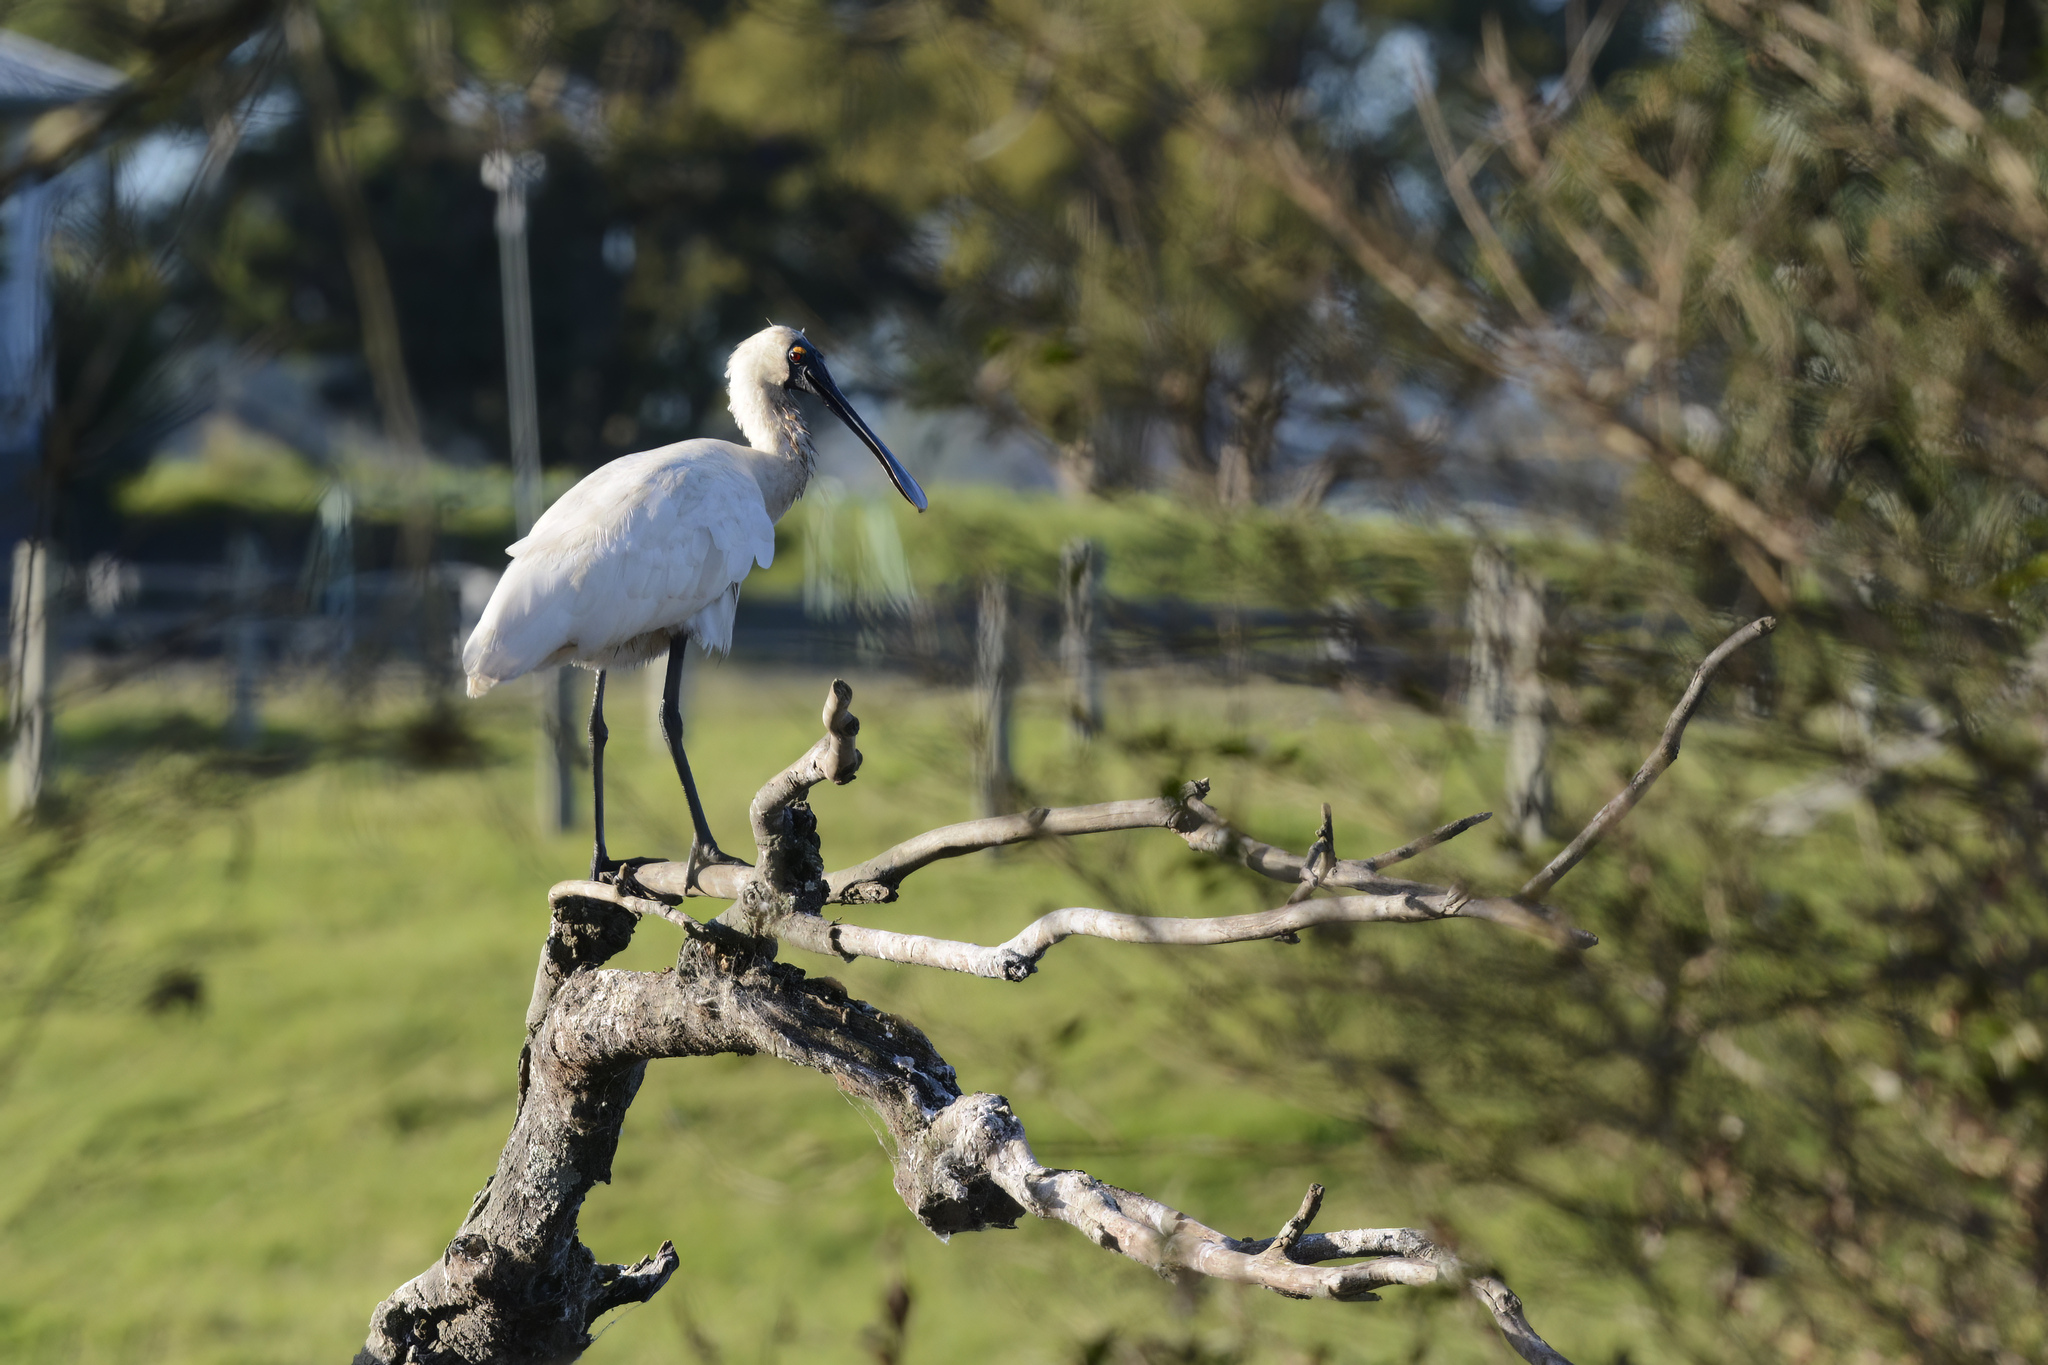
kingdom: Animalia
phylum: Chordata
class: Aves
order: Pelecaniformes
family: Threskiornithidae
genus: Platalea
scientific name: Platalea regia
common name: Royal spoonbill
